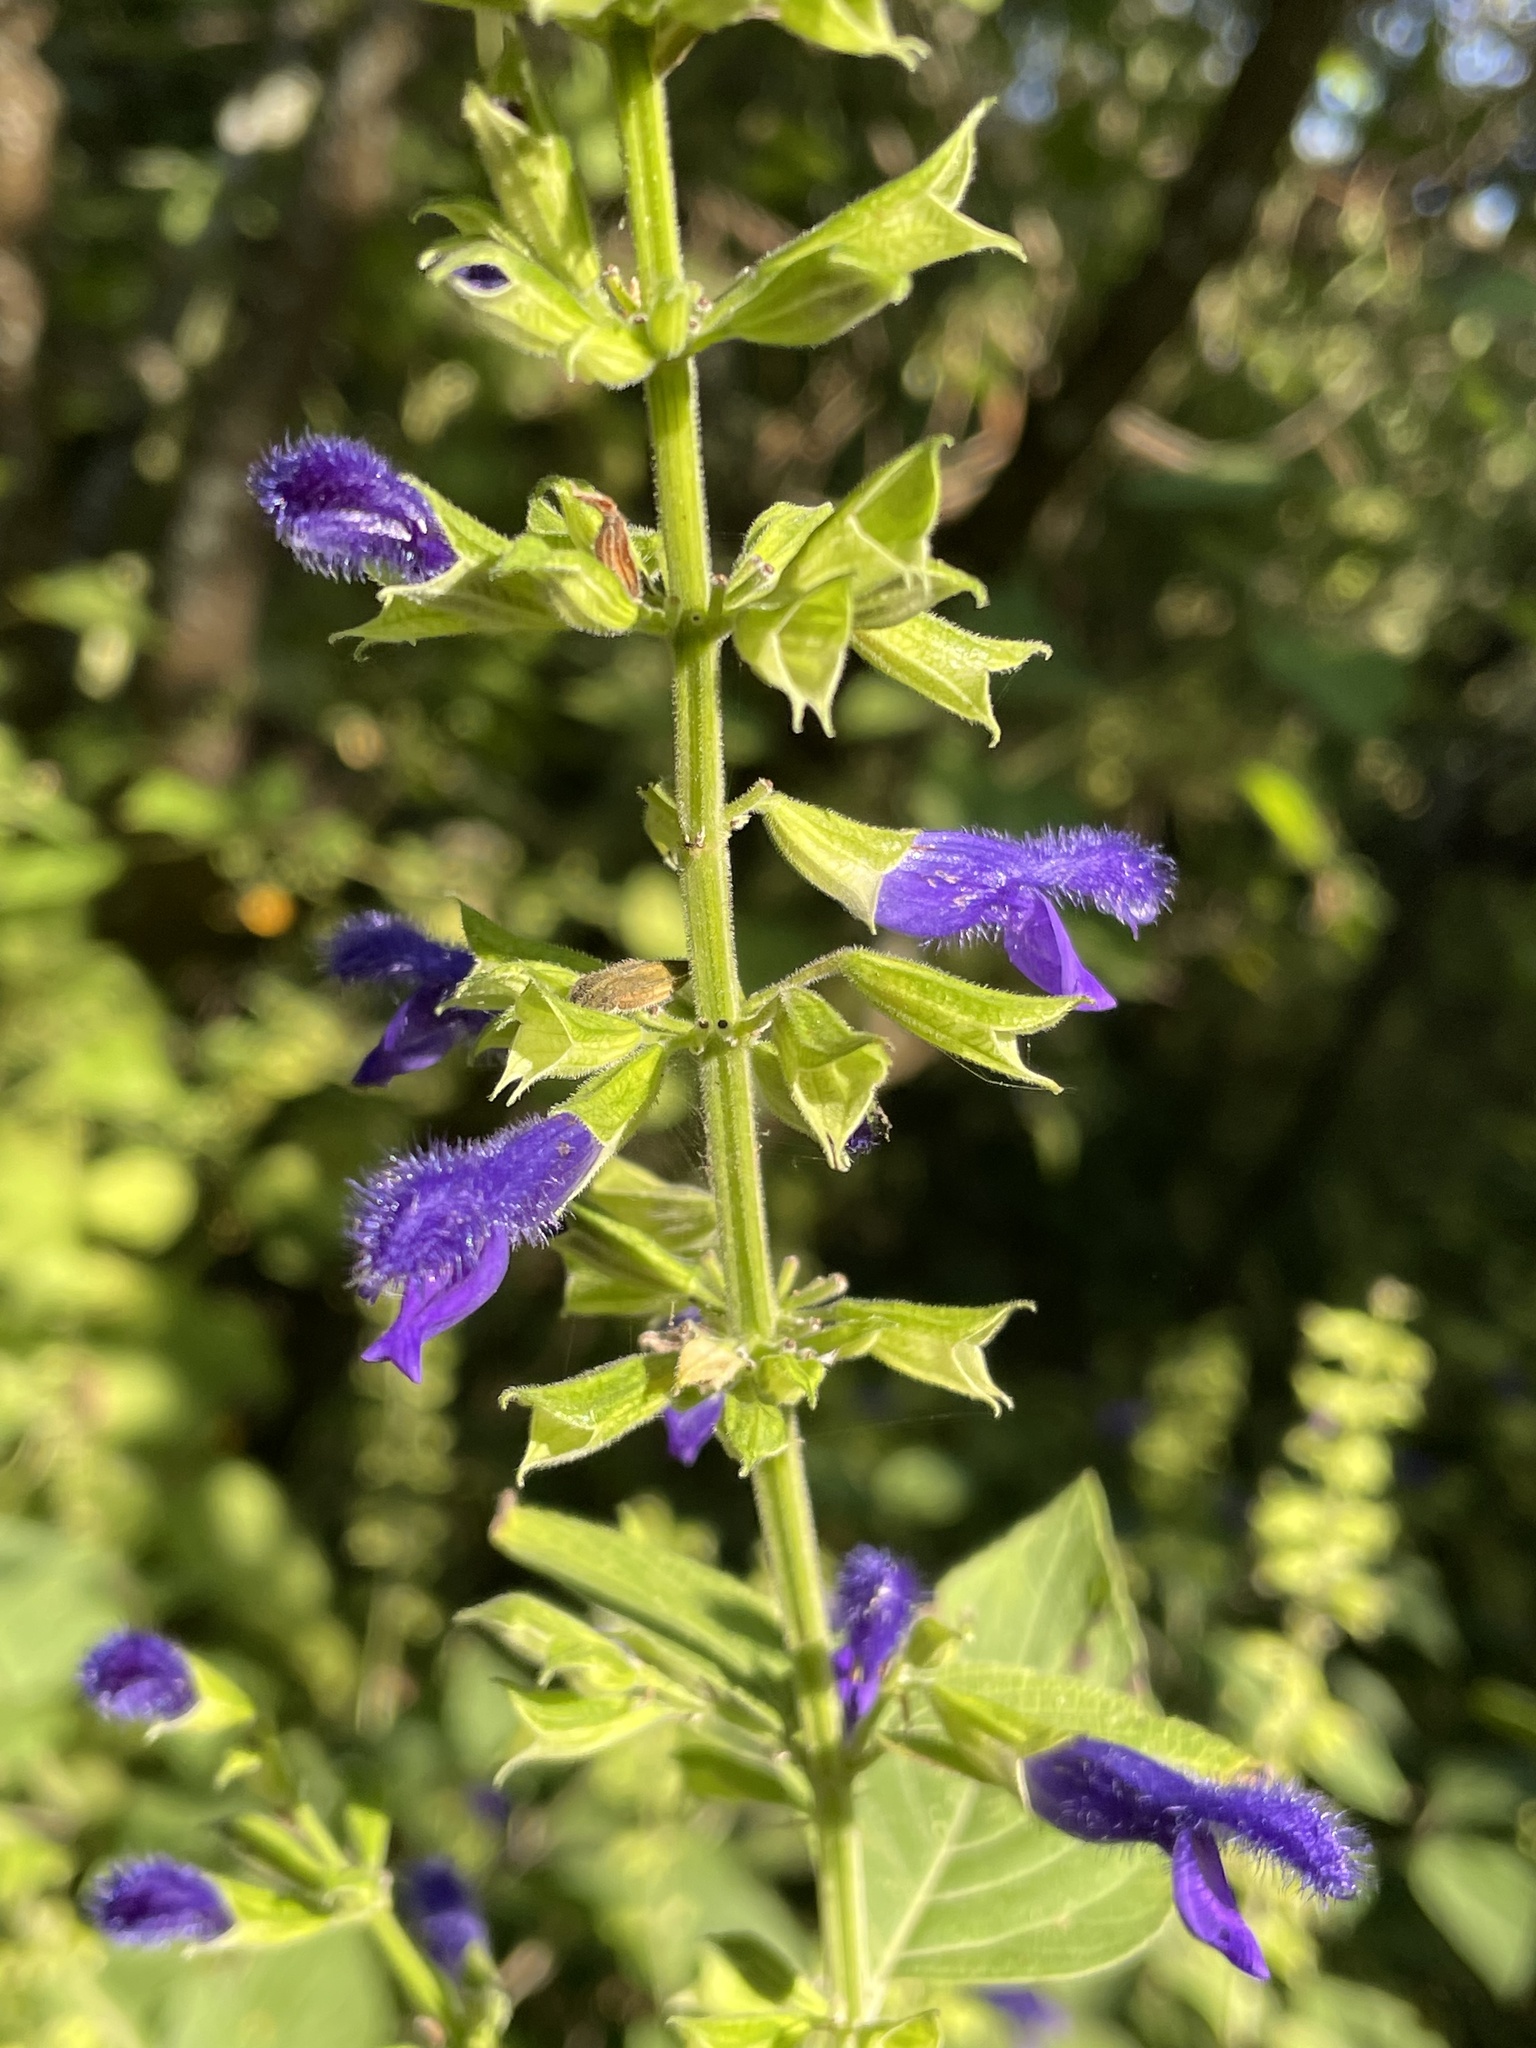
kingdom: Plantae
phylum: Tracheophyta
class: Magnoliopsida
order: Lamiales
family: Lamiaceae
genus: Salvia
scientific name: Salvia mexicana
